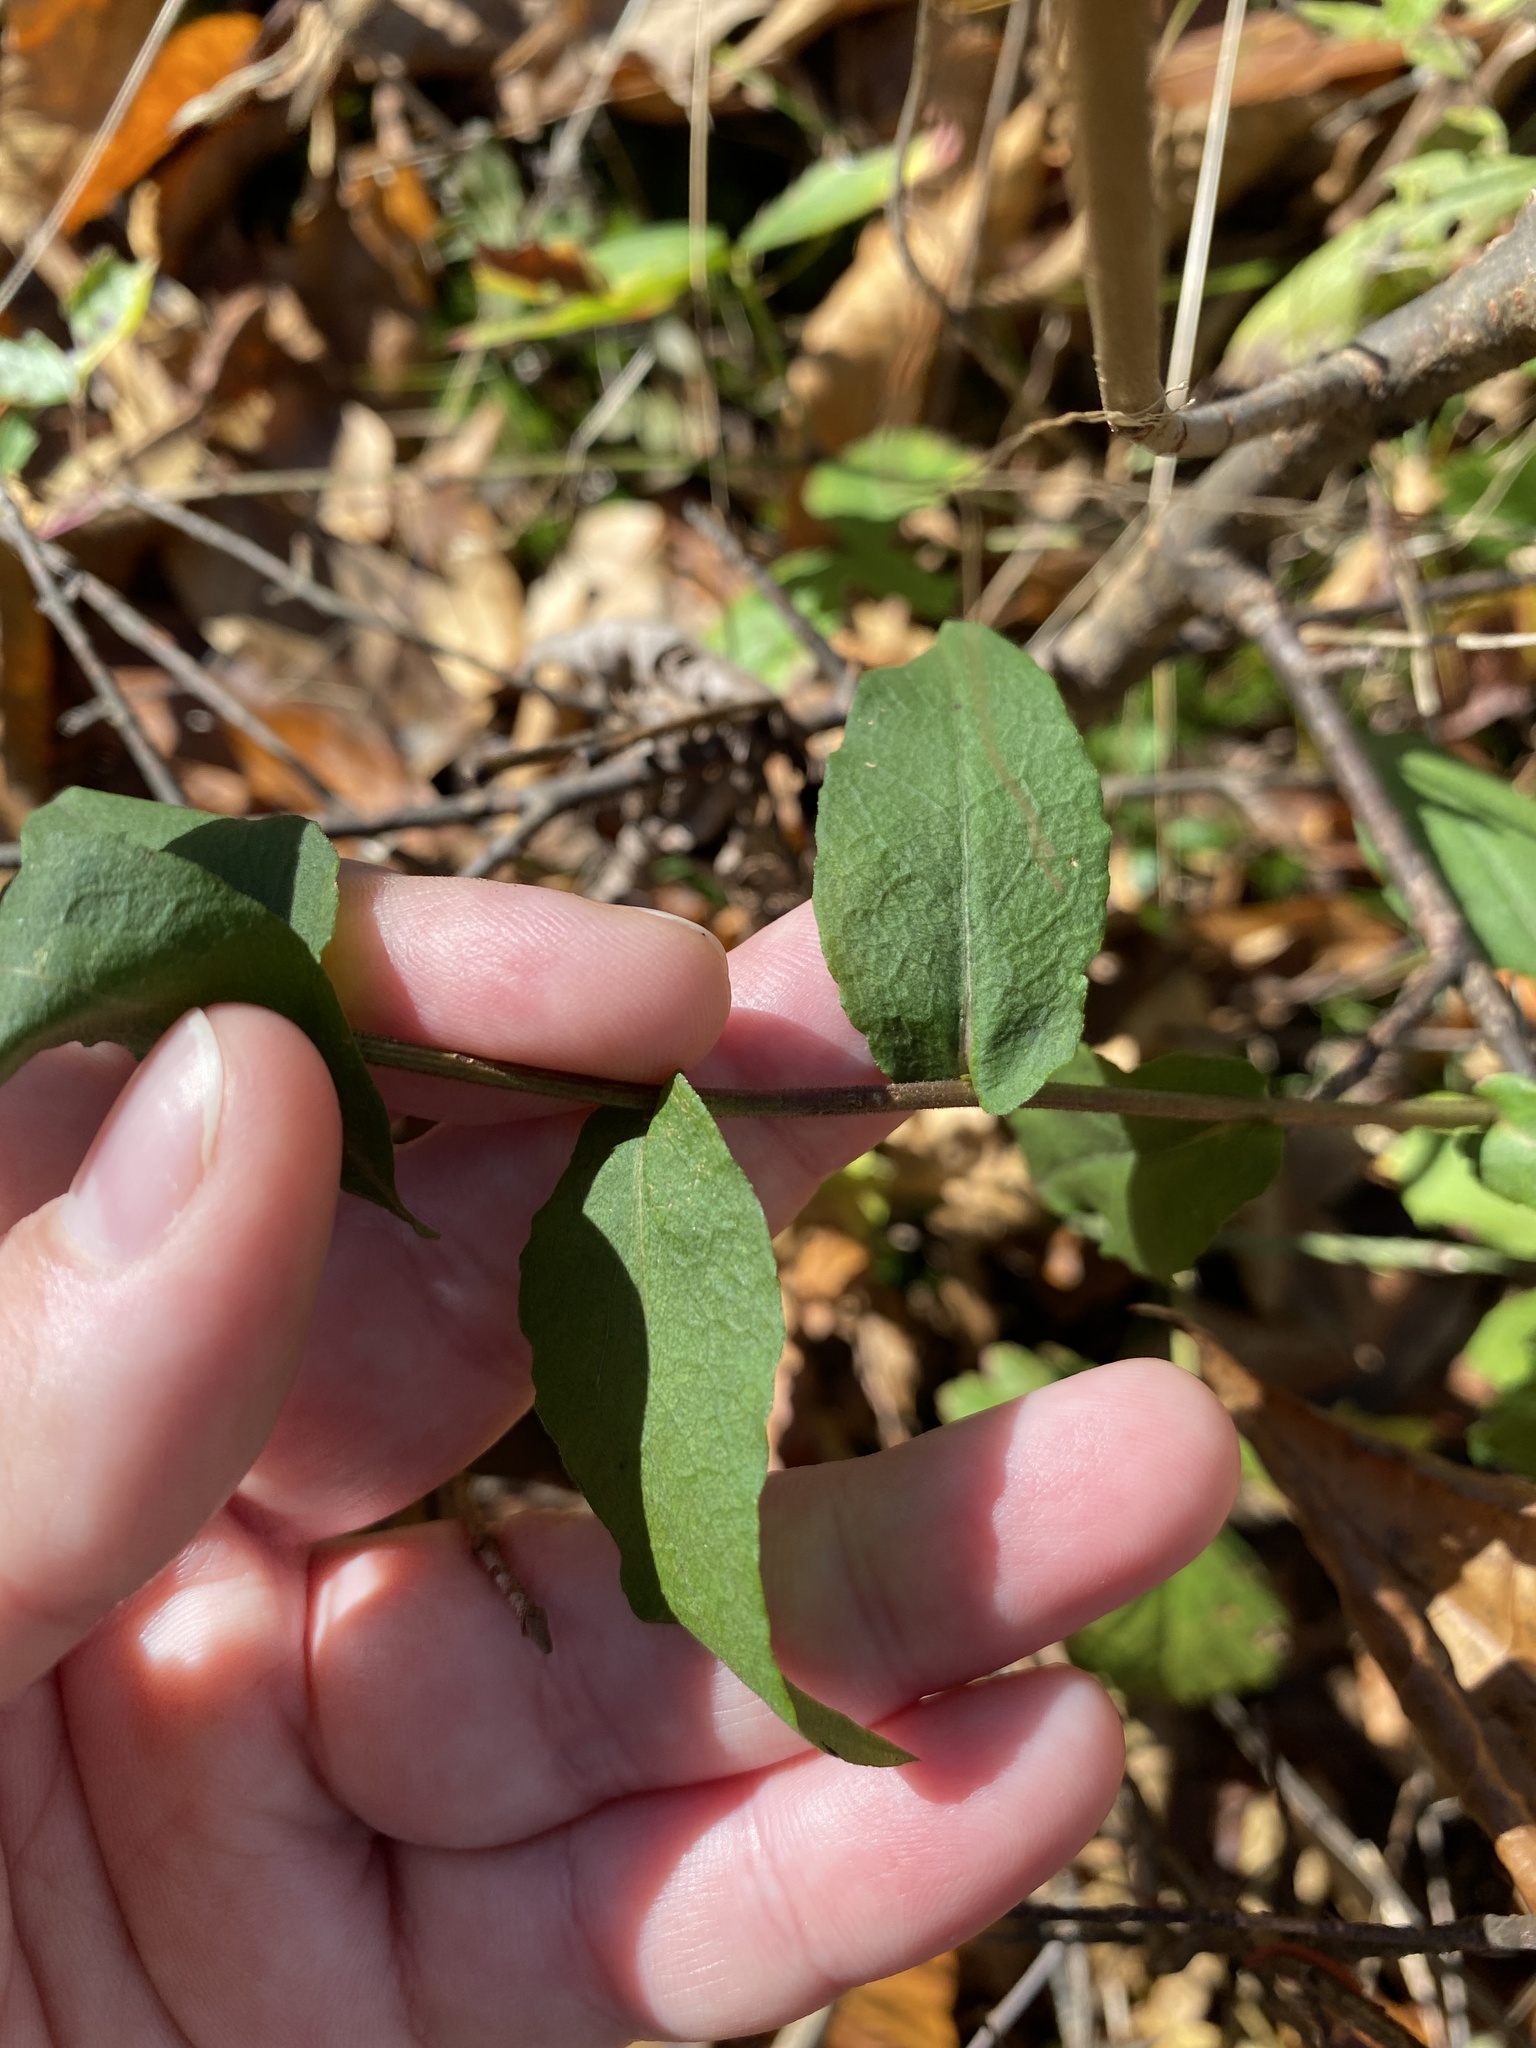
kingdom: Plantae
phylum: Tracheophyta
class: Magnoliopsida
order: Asterales
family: Asteraceae
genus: Symphyotrichum
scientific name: Symphyotrichum undulatum
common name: Clasping heart-leaf aster
